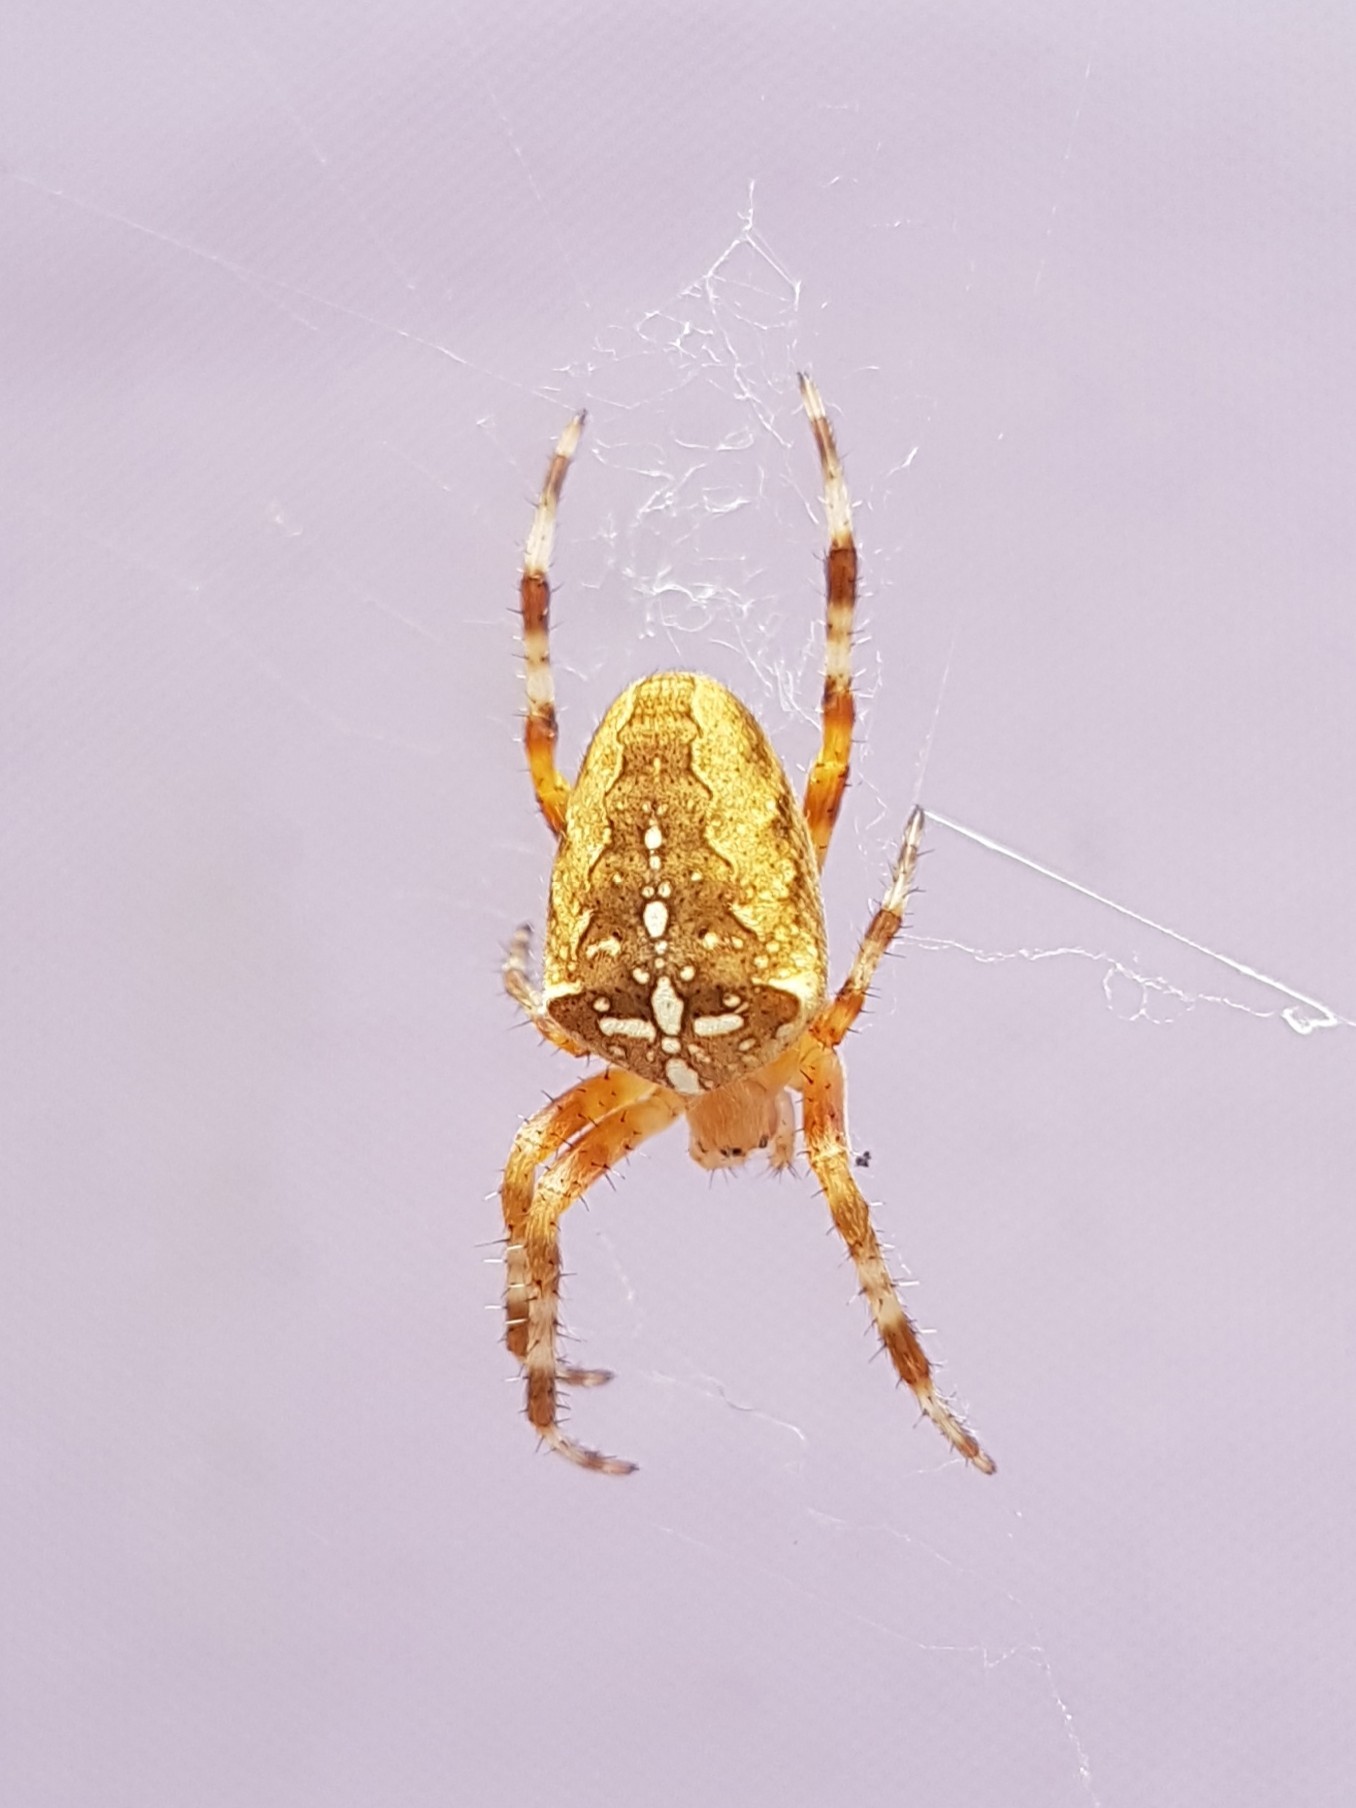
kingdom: Animalia
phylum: Arthropoda
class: Arachnida
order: Araneae
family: Araneidae
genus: Araneus
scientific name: Araneus diadematus
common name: Cross orbweaver
